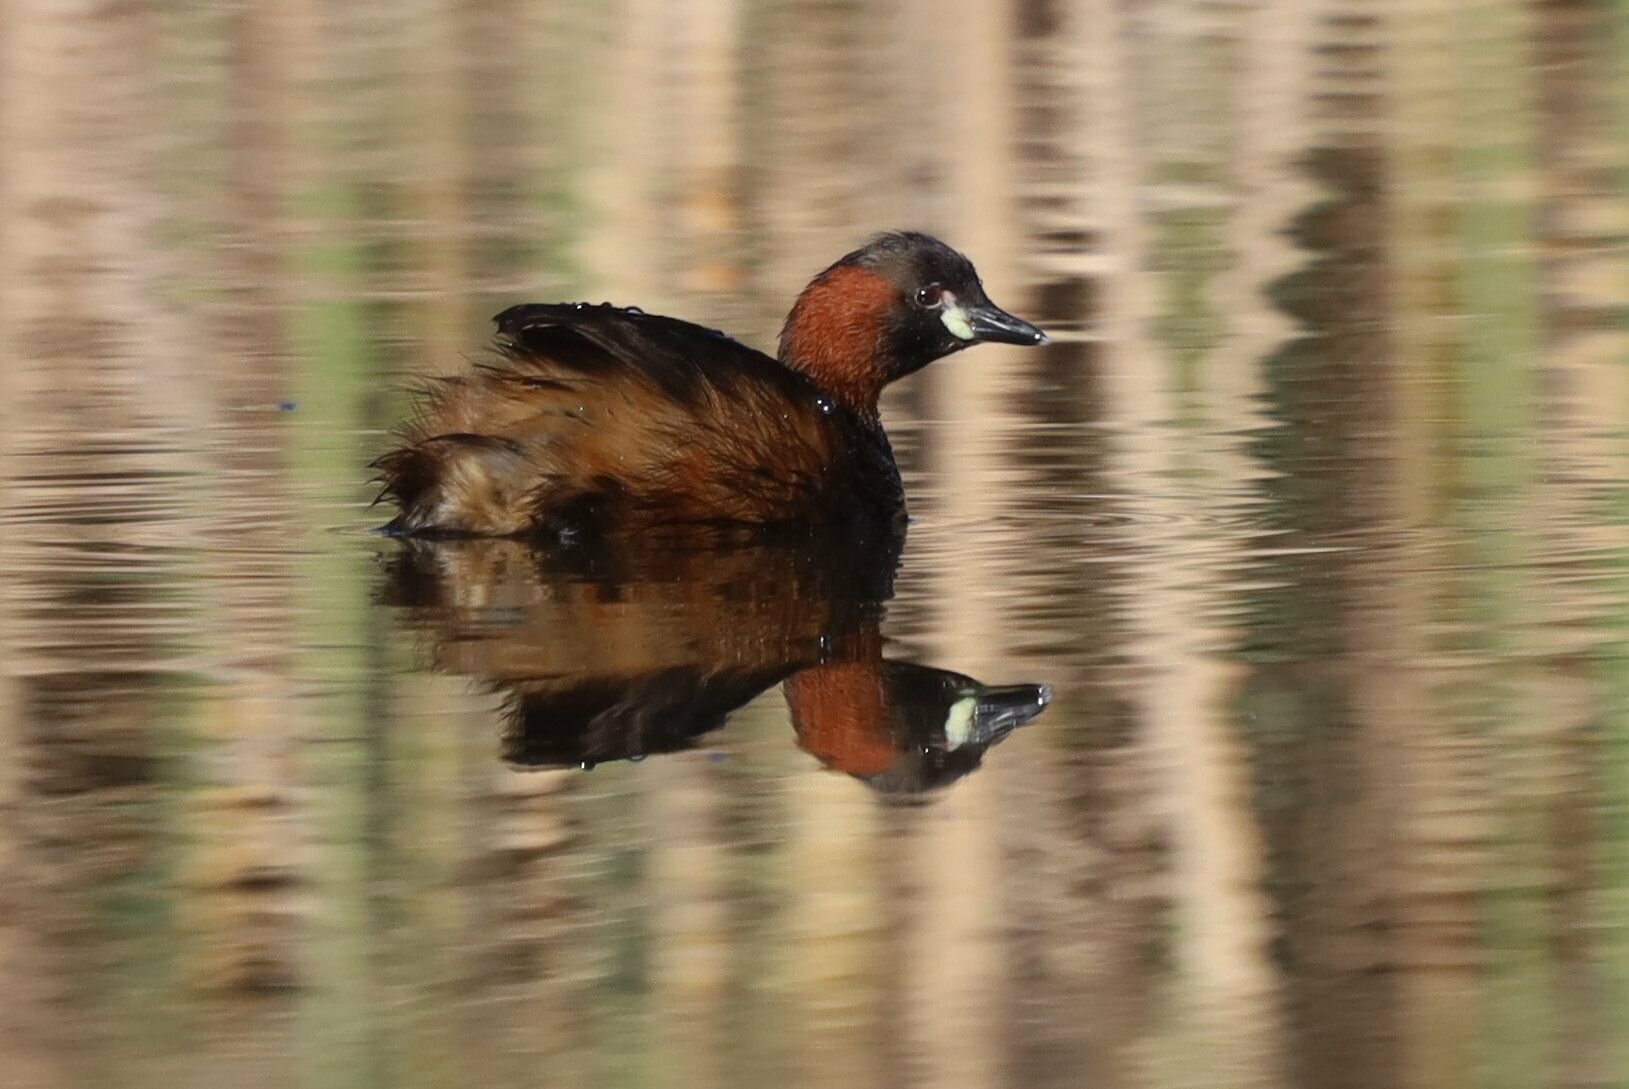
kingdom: Animalia
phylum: Chordata
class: Aves
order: Podicipediformes
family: Podicipedidae
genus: Tachybaptus
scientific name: Tachybaptus ruficollis
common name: Little grebe
